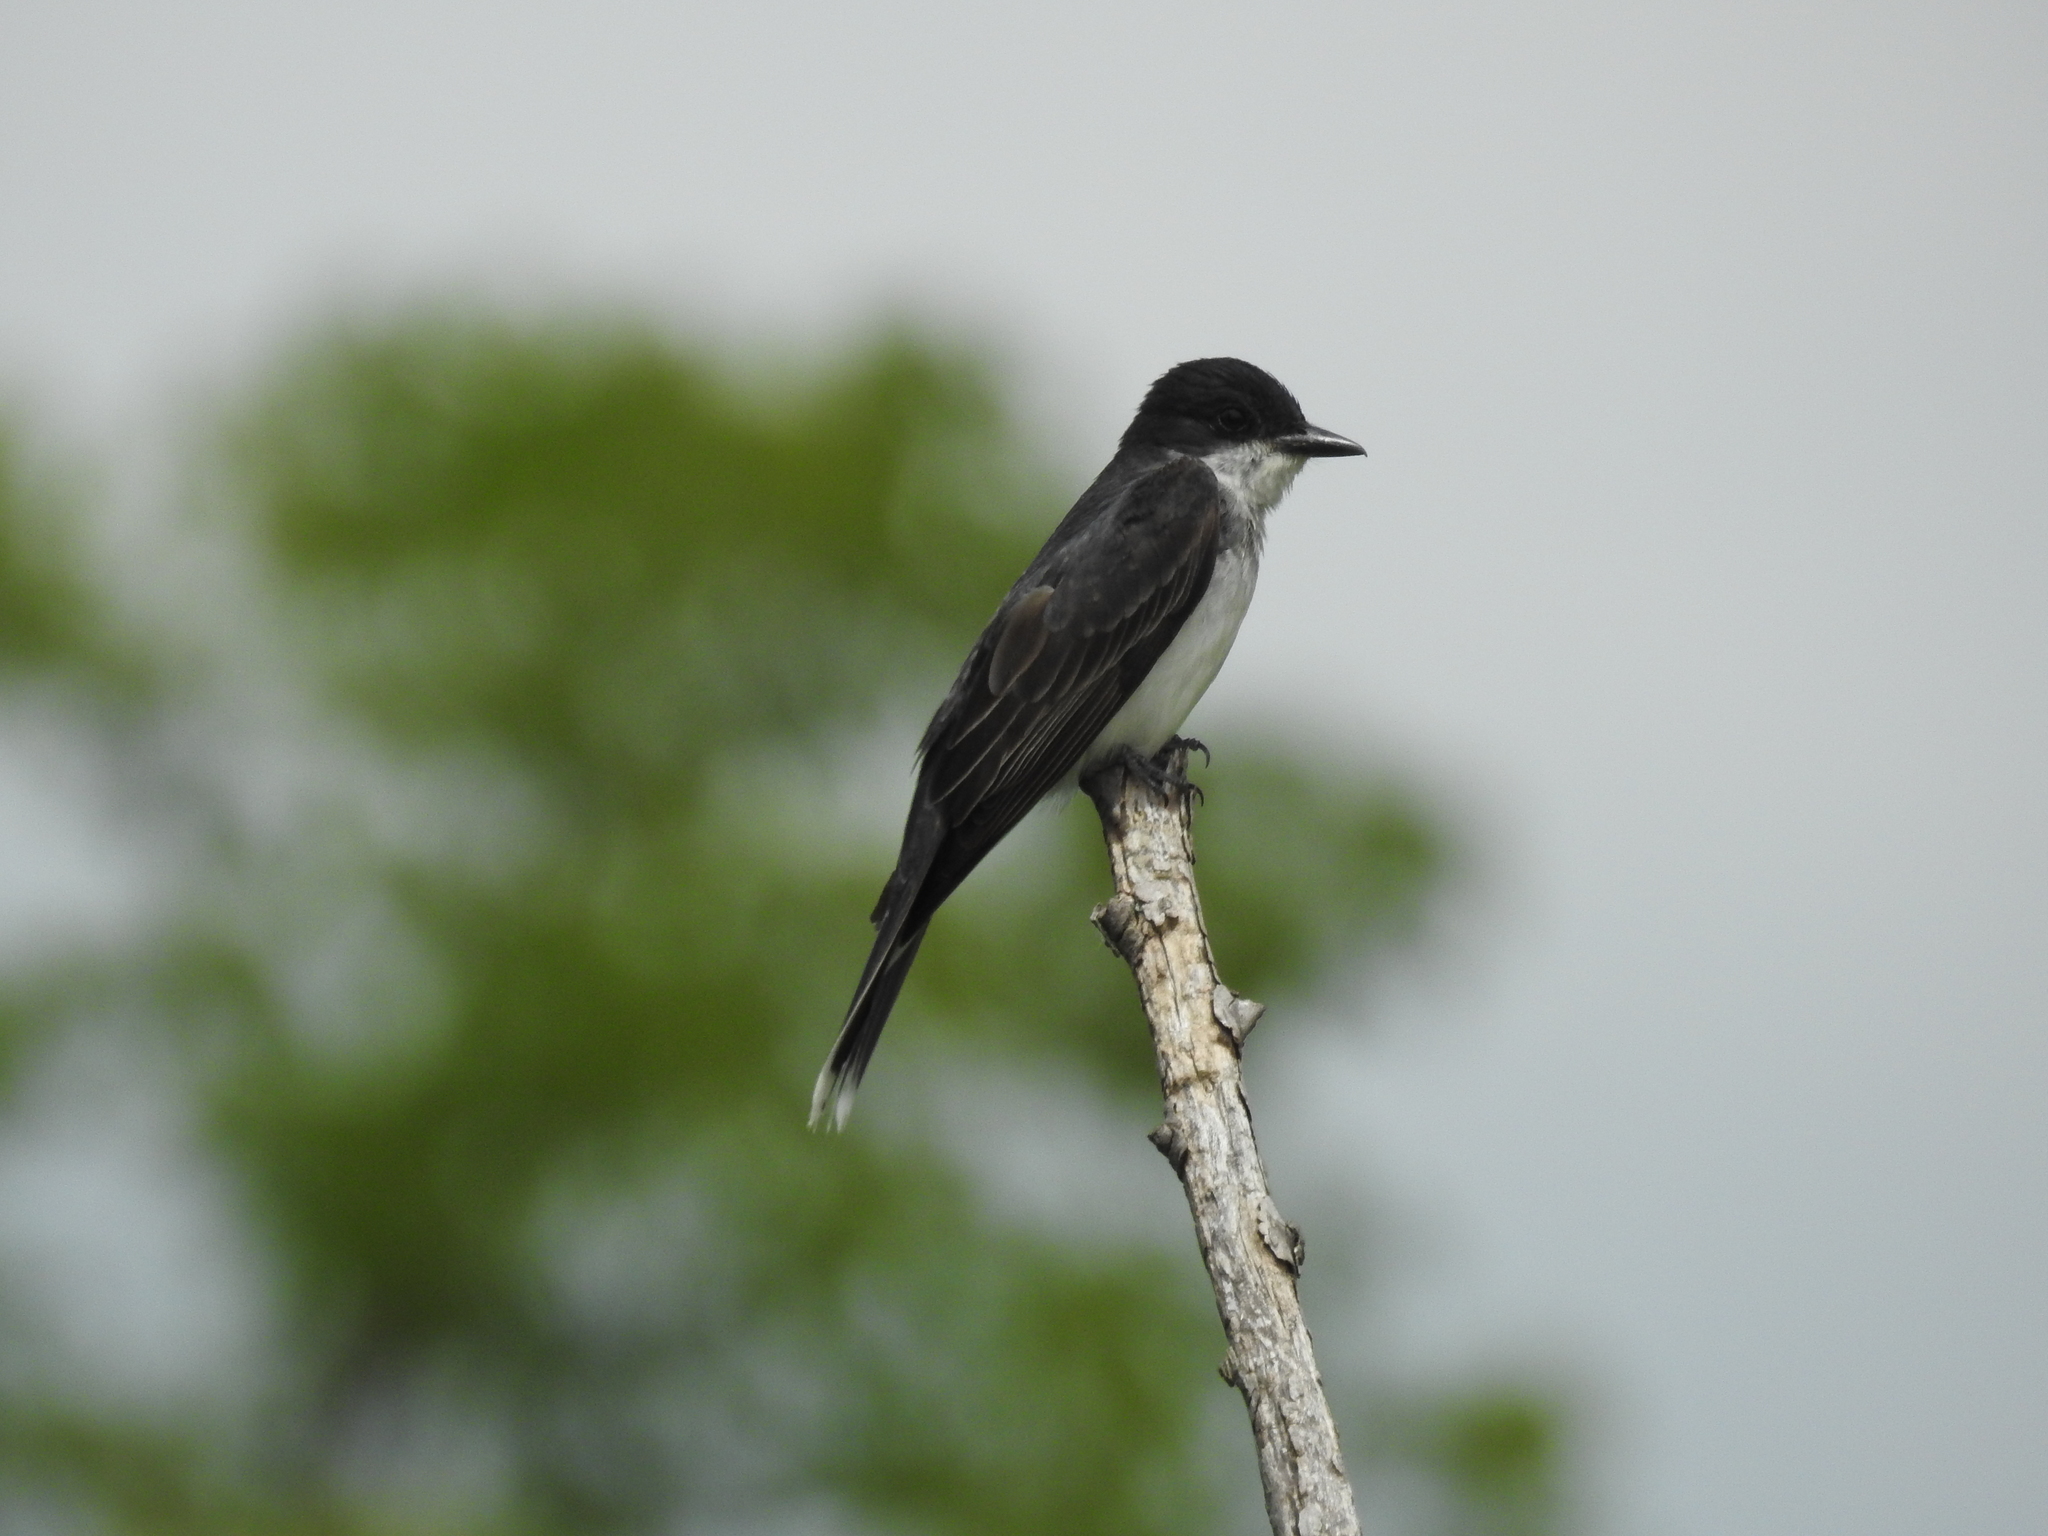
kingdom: Animalia
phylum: Chordata
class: Aves
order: Passeriformes
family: Tyrannidae
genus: Tyrannus
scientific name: Tyrannus tyrannus
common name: Eastern kingbird
